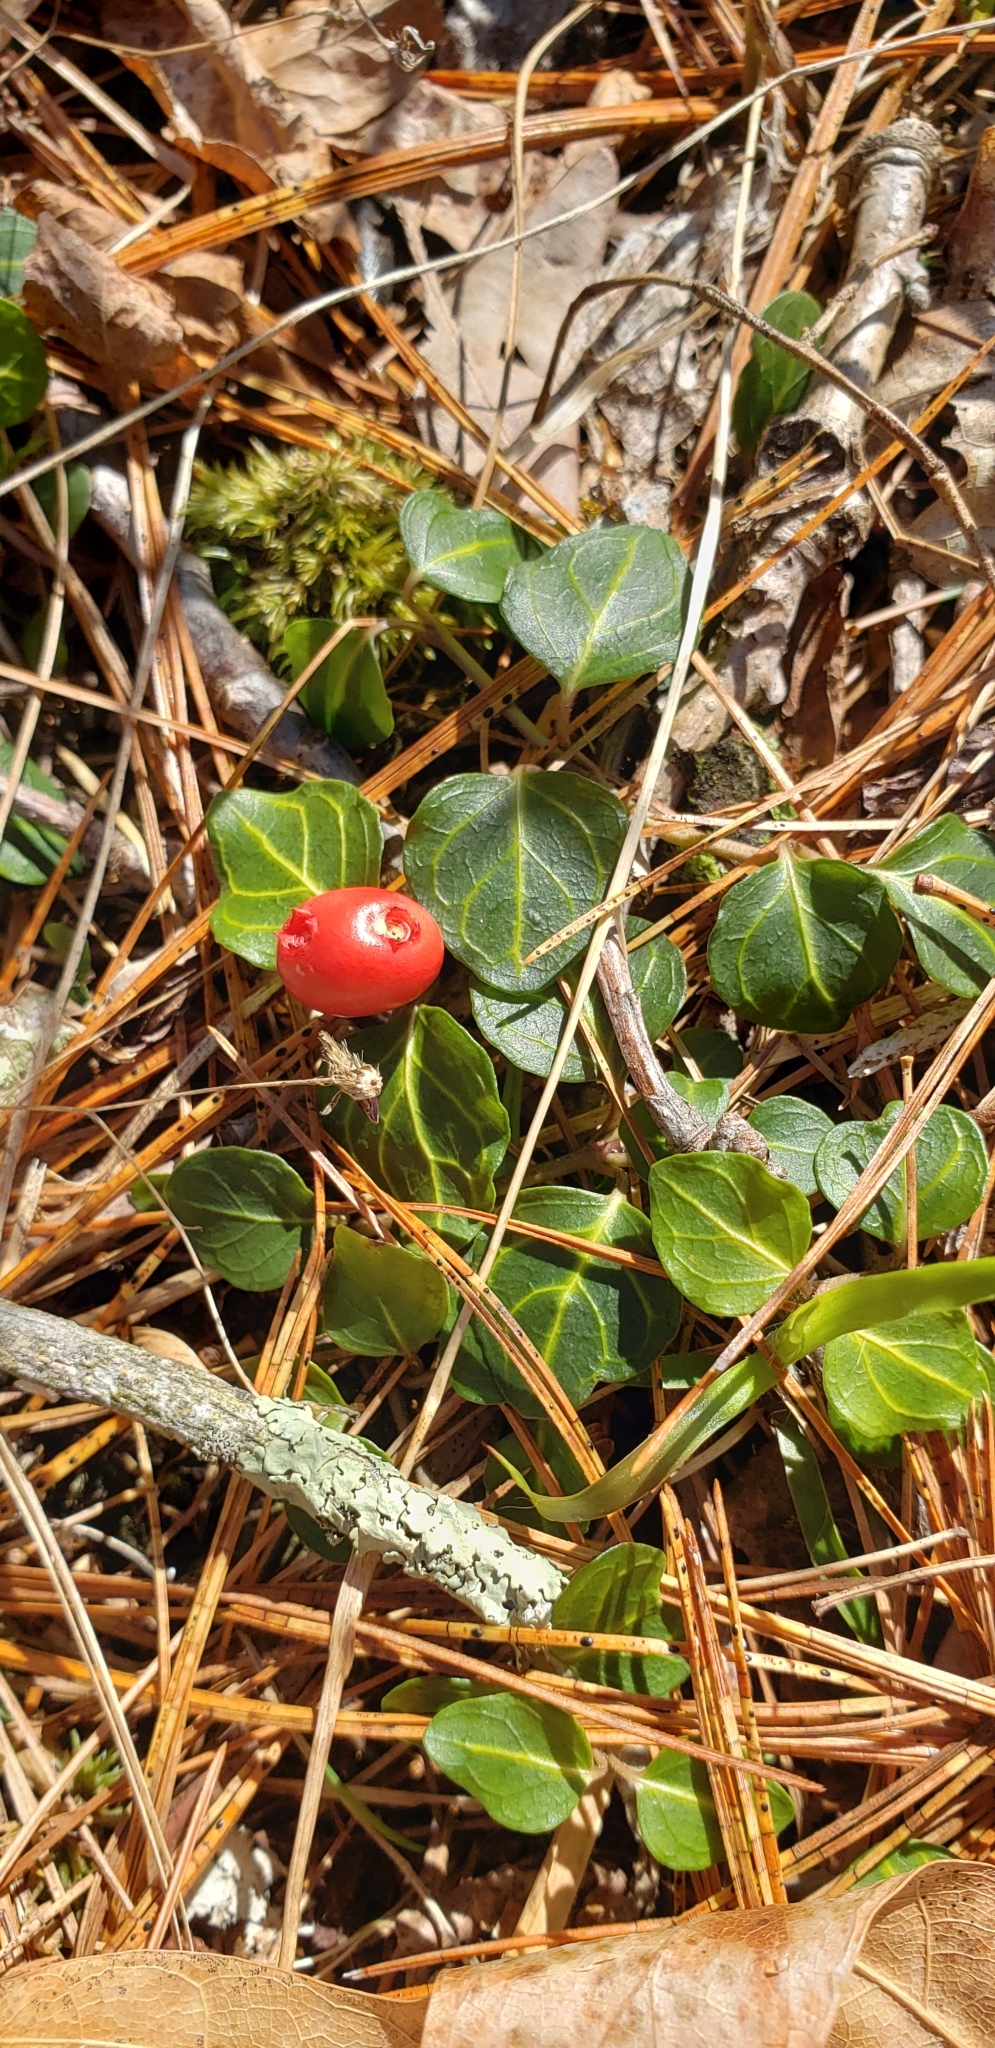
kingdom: Plantae
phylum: Tracheophyta
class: Magnoliopsida
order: Gentianales
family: Rubiaceae
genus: Mitchella
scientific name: Mitchella repens
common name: Partridge-berry
